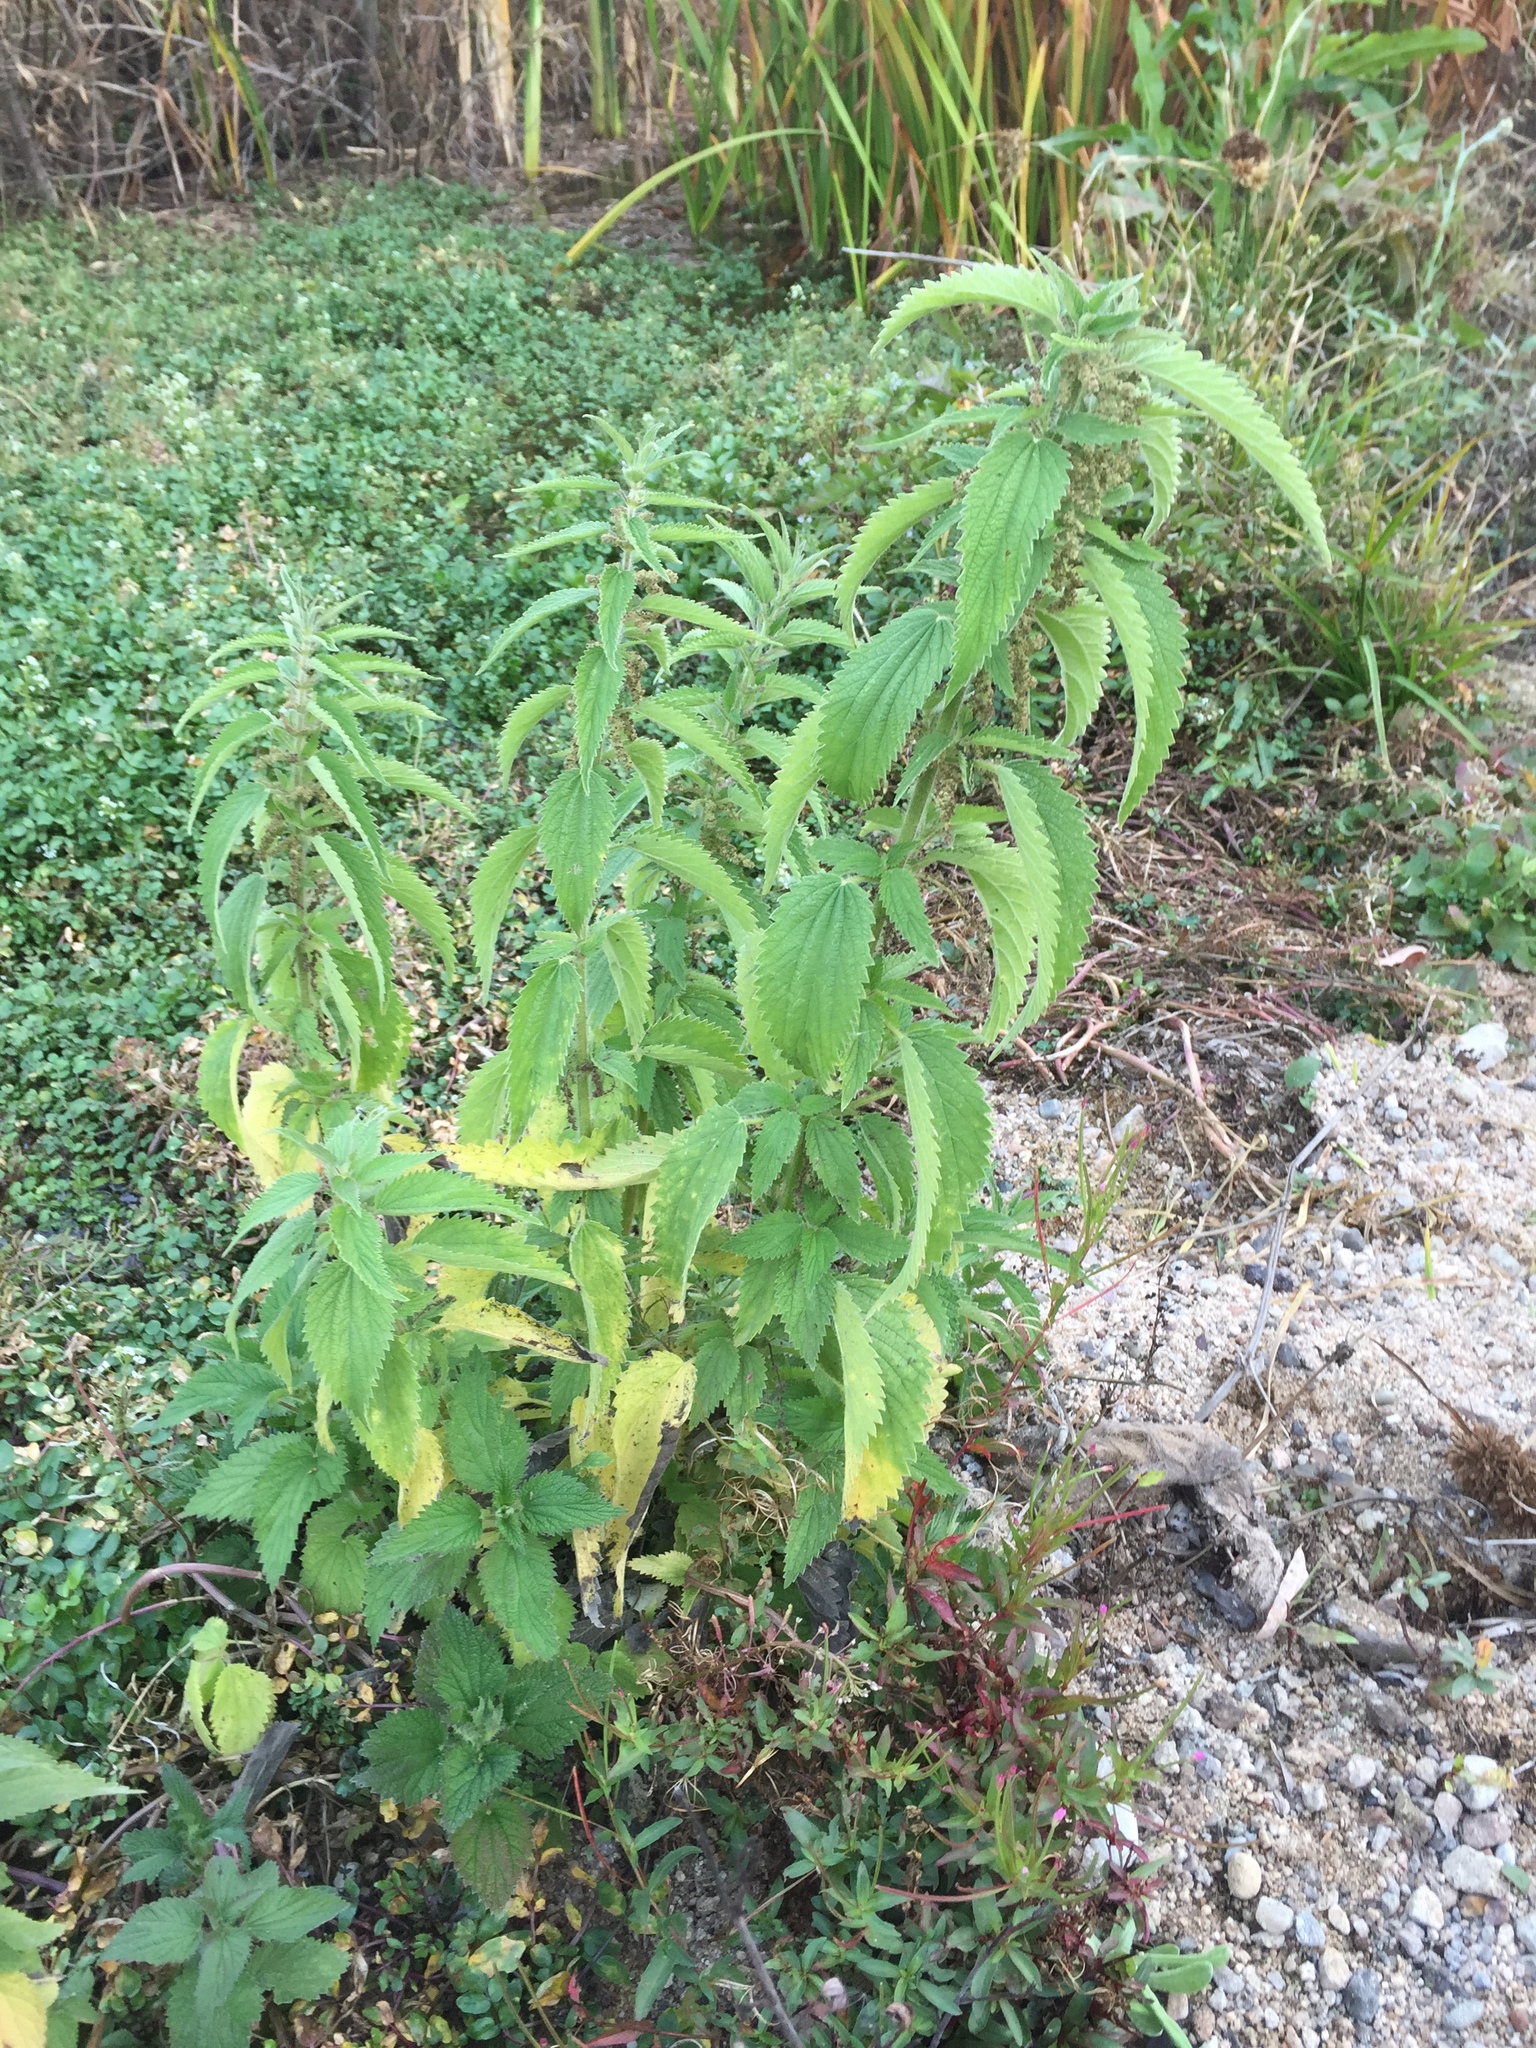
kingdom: Plantae
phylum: Tracheophyta
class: Magnoliopsida
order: Rosales
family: Urticaceae
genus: Urtica
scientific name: Urtica dioica
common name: Common nettle
